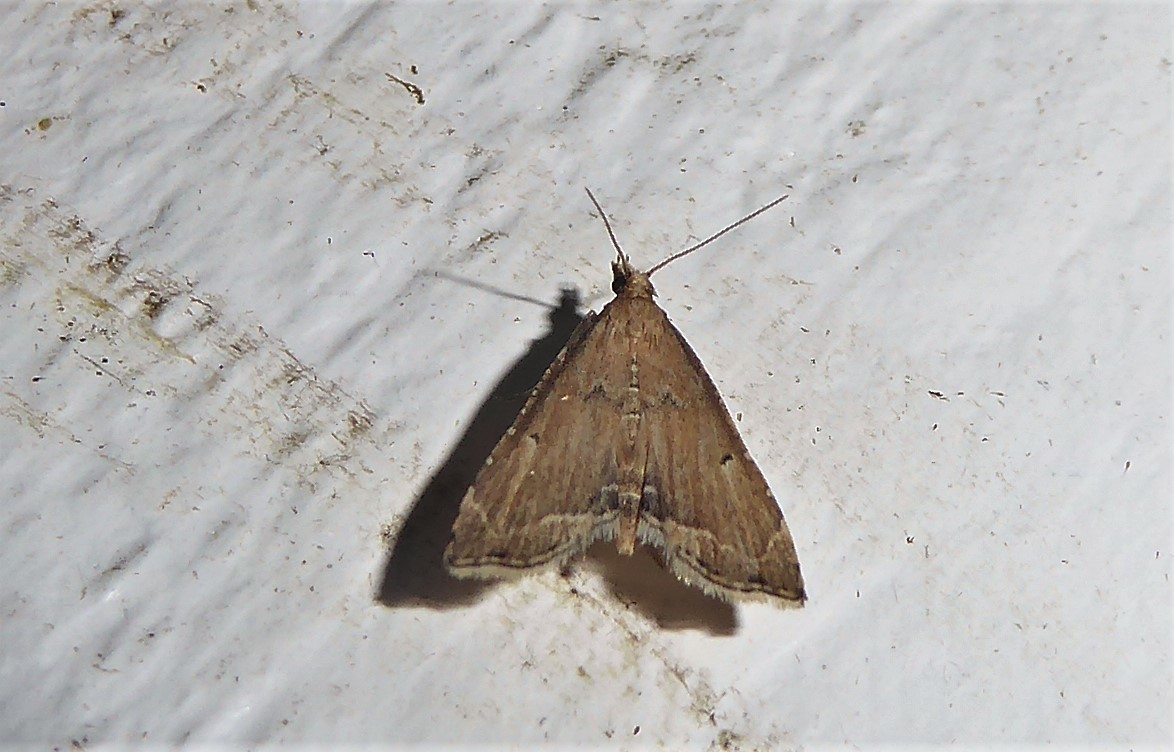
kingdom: Animalia
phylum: Arthropoda
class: Insecta
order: Lepidoptera
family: Crambidae
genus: Diplopseustis
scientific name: Diplopseustis perieresalis
